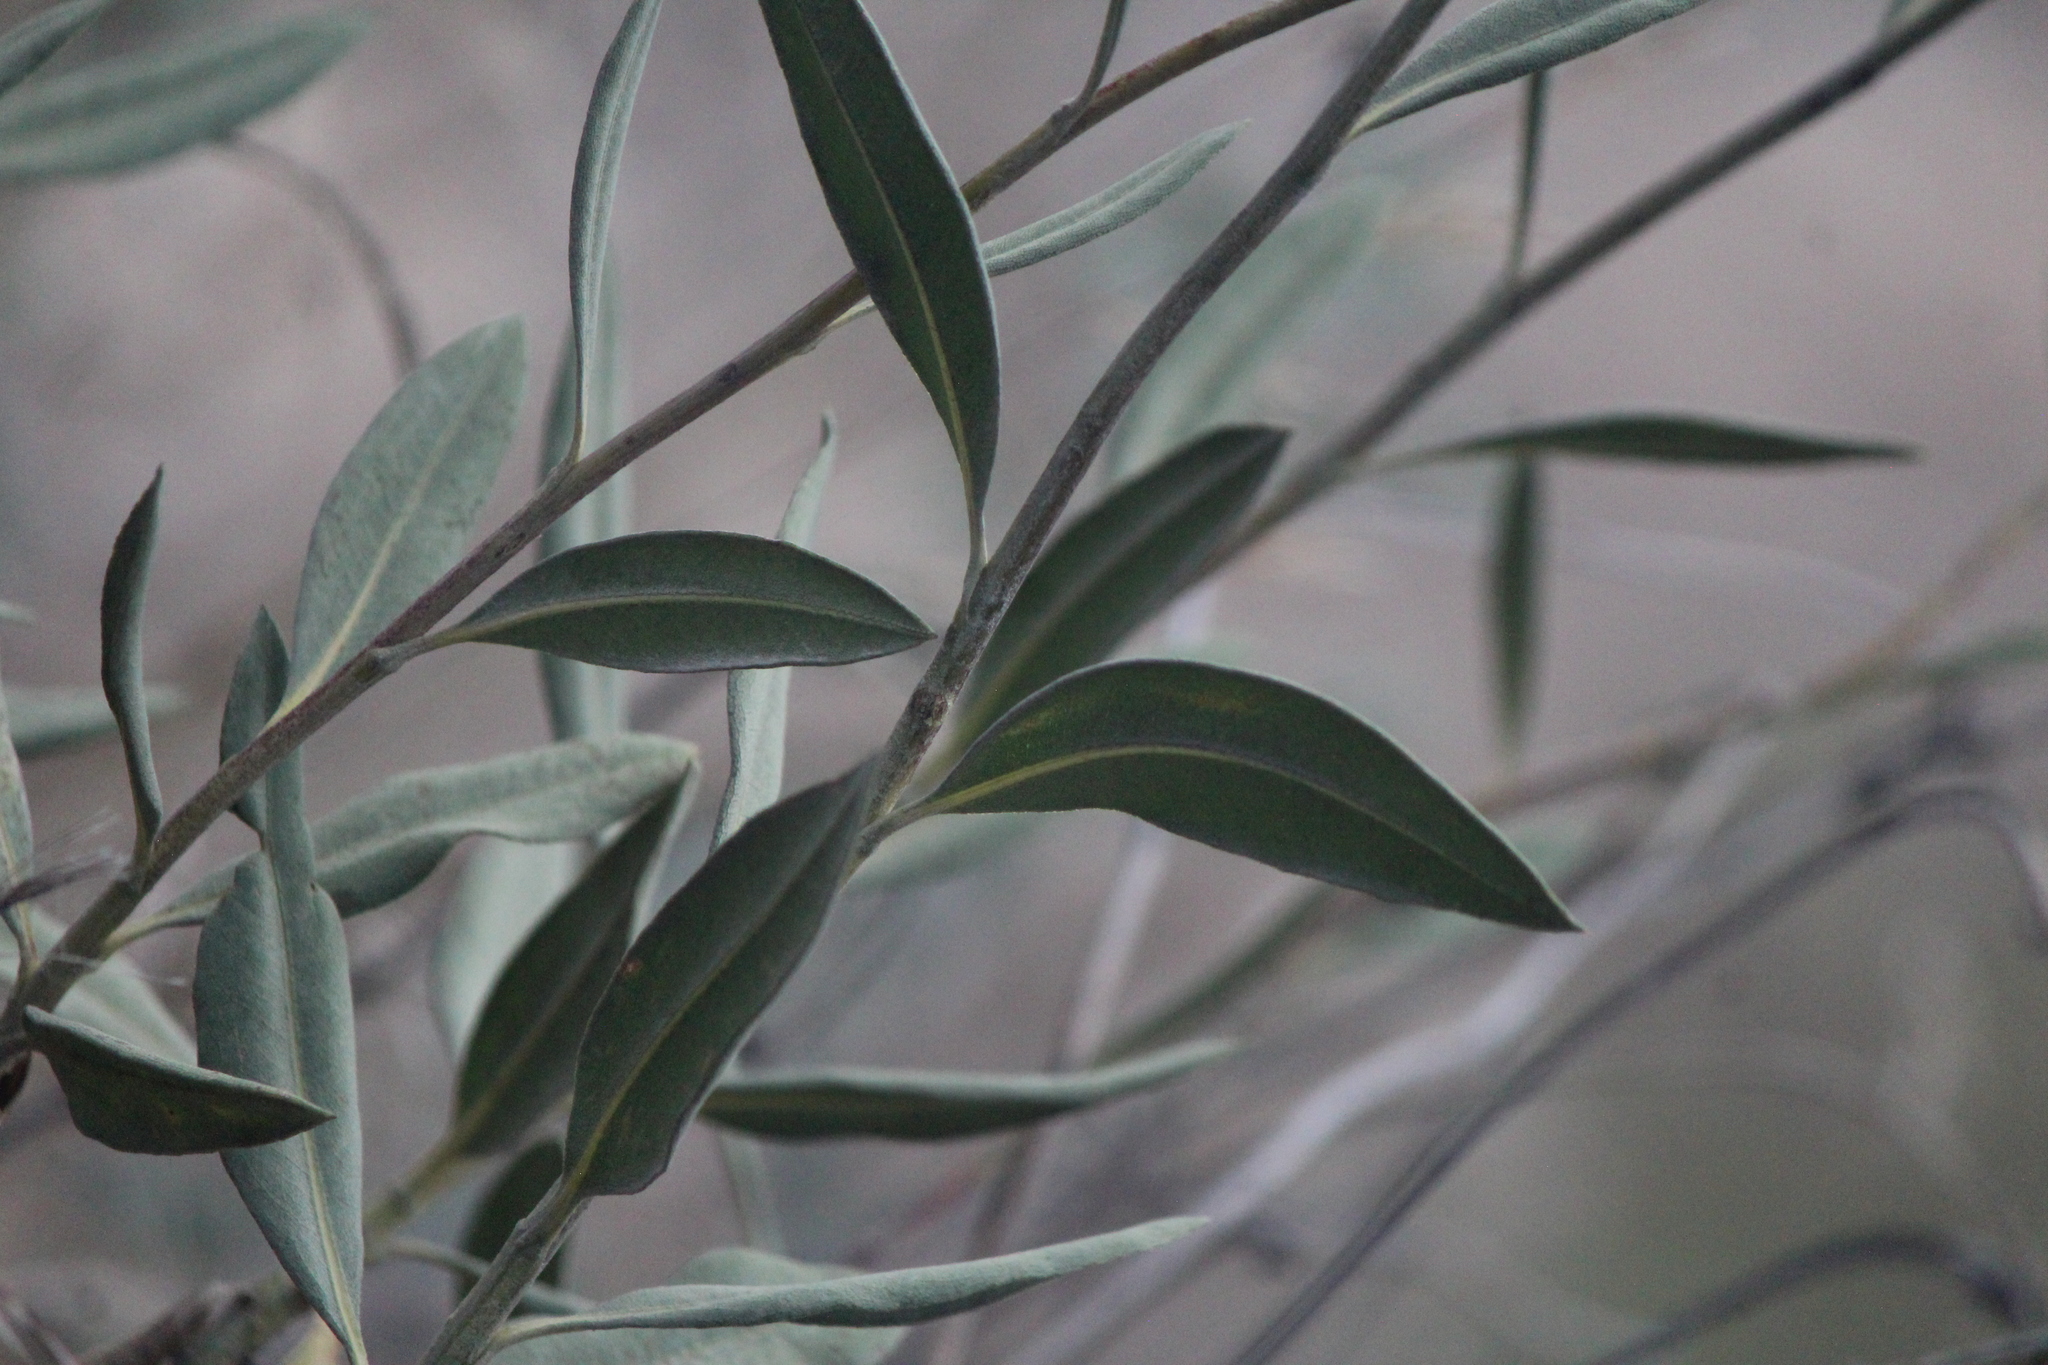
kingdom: Plantae
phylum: Tracheophyta
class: Magnoliopsida
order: Asterales
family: Asteraceae
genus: Flourensia
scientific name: Flourensia resinosa
